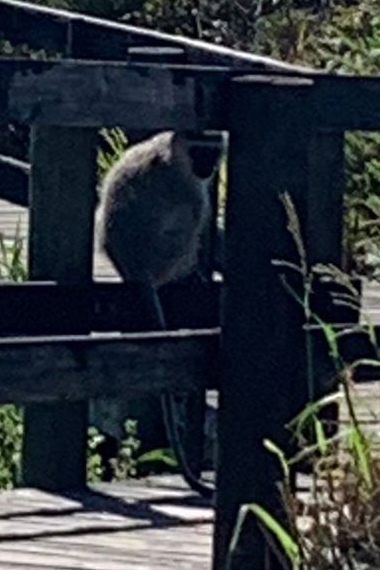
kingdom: Animalia
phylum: Chordata
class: Mammalia
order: Primates
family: Cercopithecidae
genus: Chlorocebus
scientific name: Chlorocebus pygerythrus
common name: Vervet monkey
